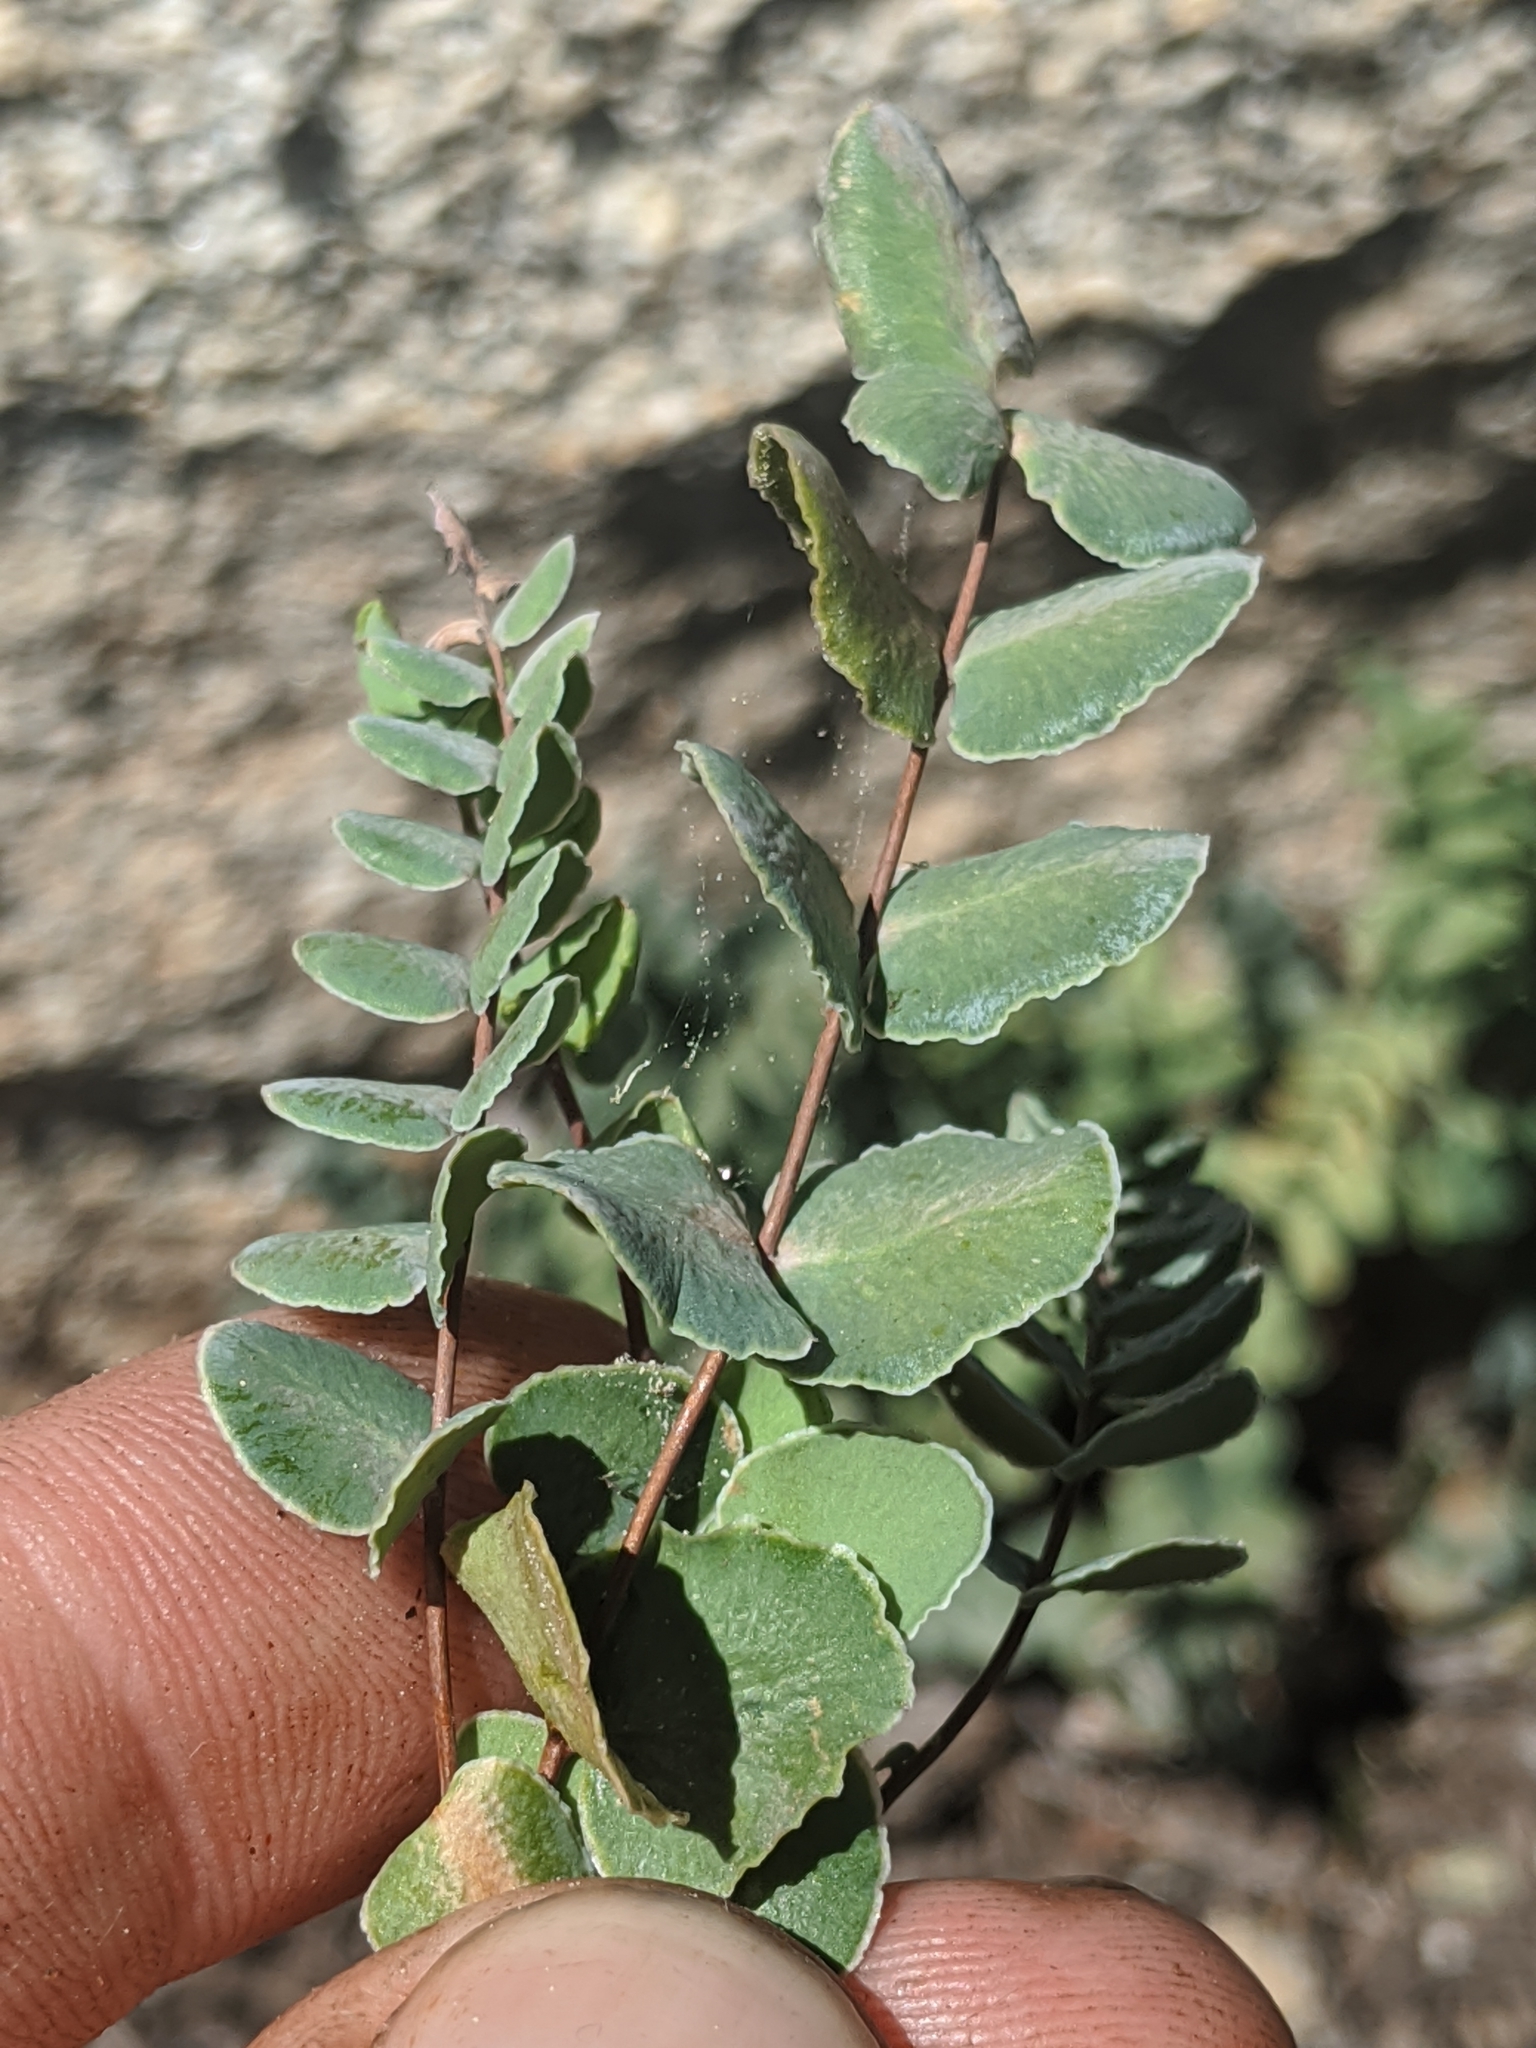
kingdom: Plantae
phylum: Tracheophyta
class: Polypodiopsida
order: Polypodiales
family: Pteridaceae
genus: Pellaea
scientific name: Pellaea bridgesii
